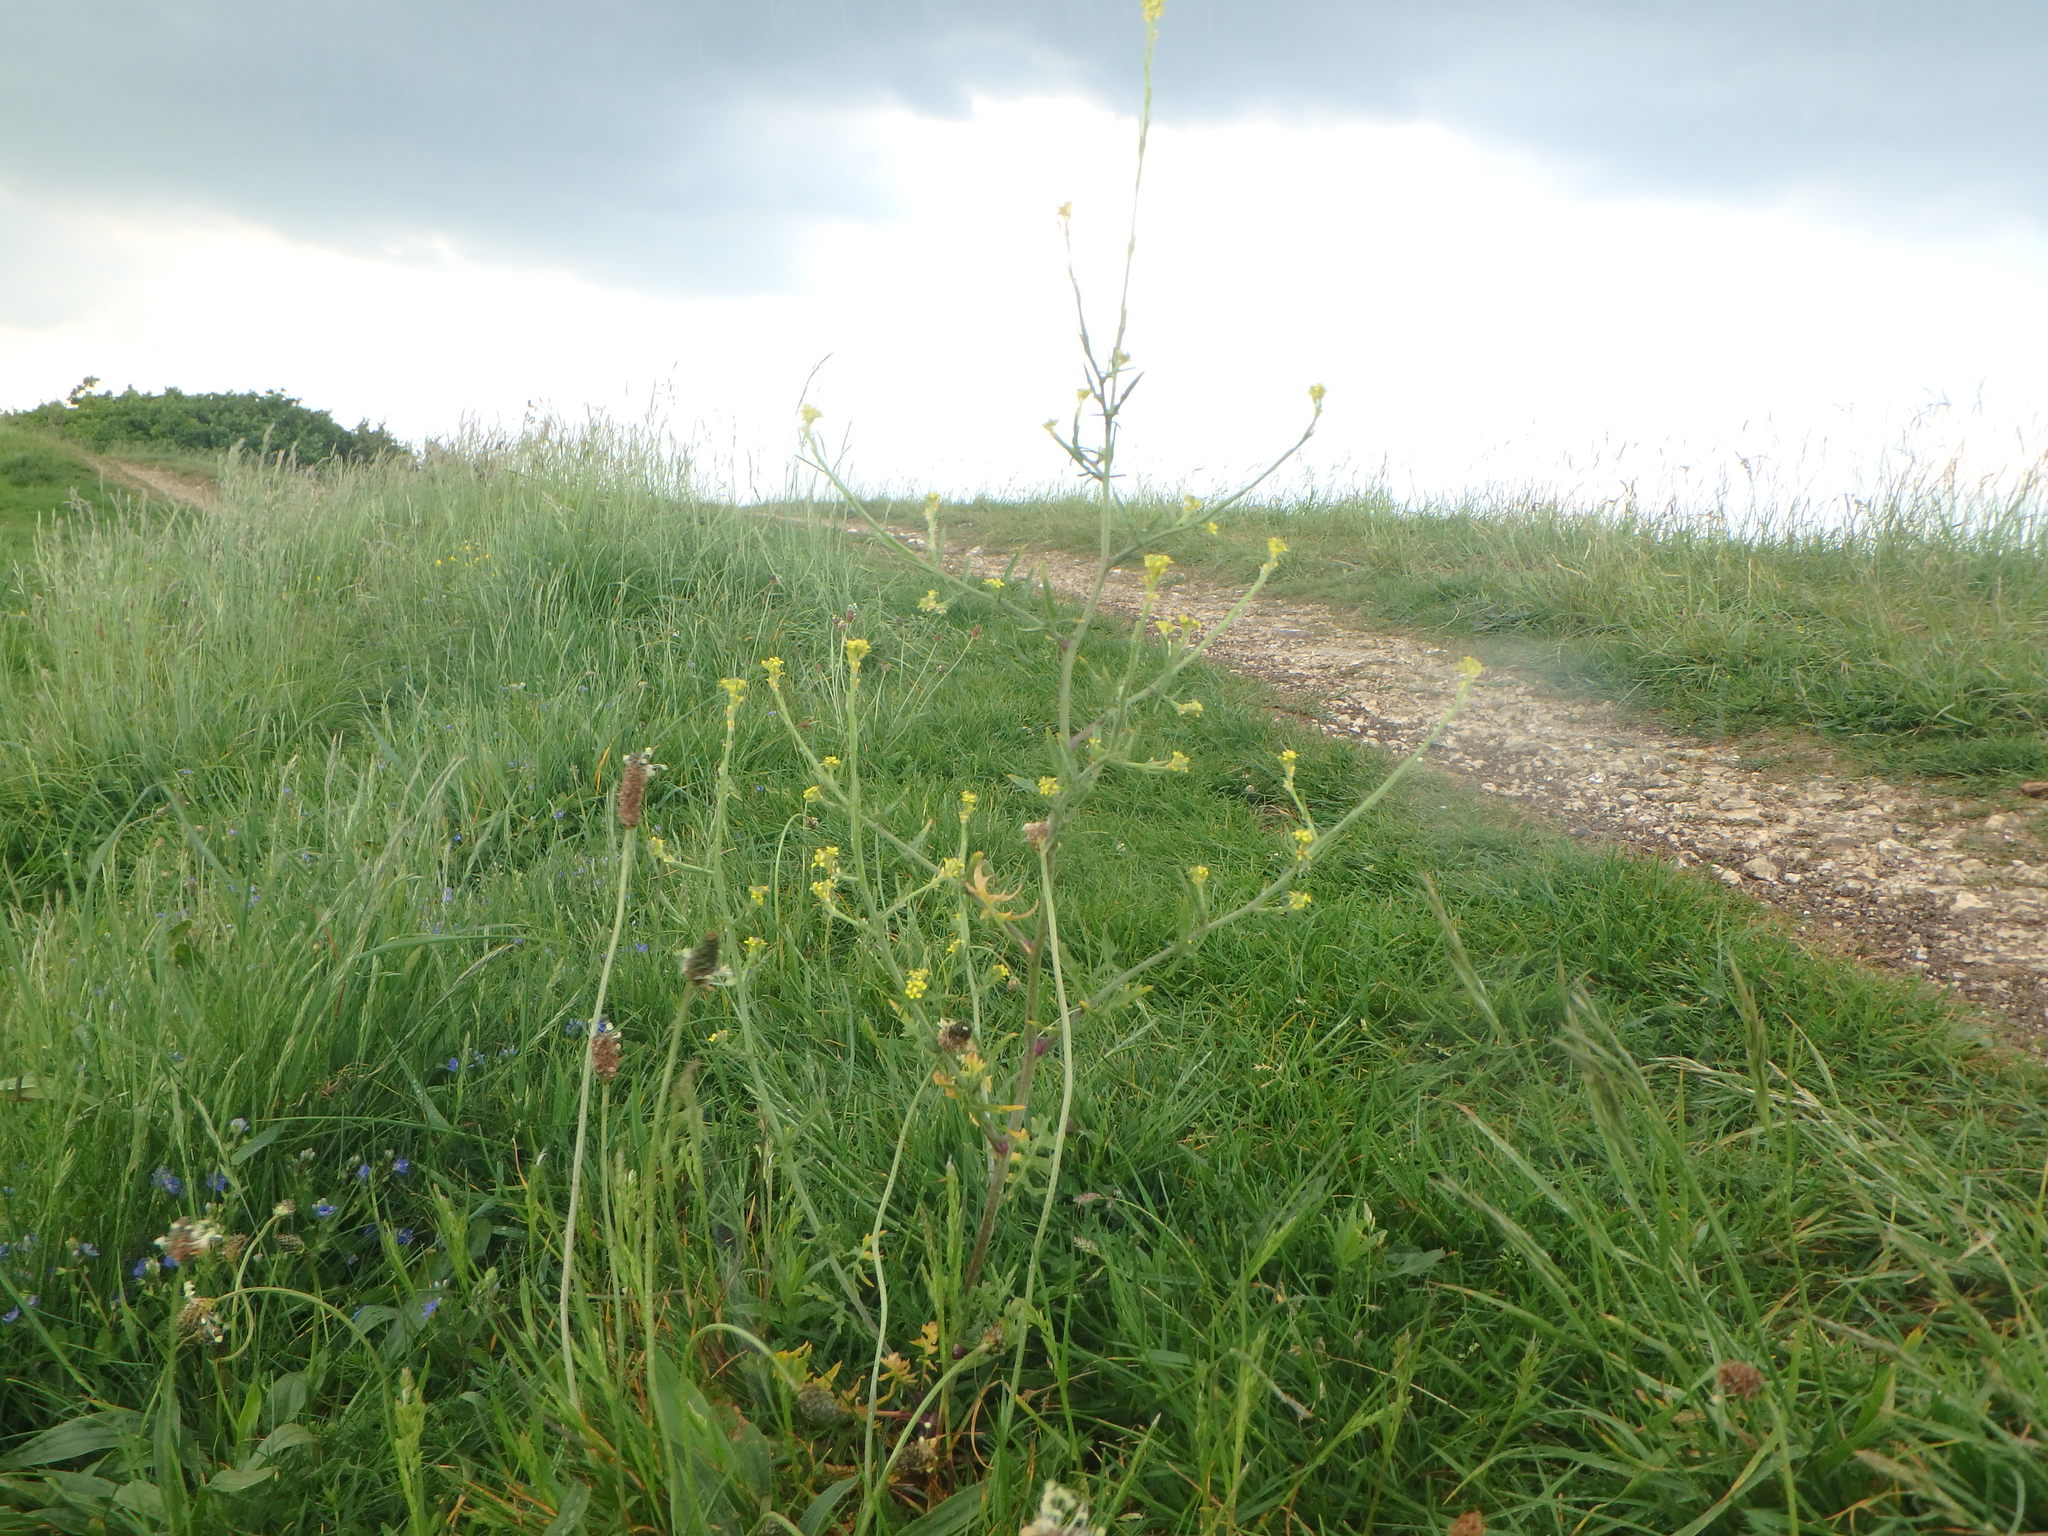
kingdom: Plantae
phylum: Tracheophyta
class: Magnoliopsida
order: Brassicales
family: Brassicaceae
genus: Sisymbrium
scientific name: Sisymbrium officinale
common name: Hedge mustard
